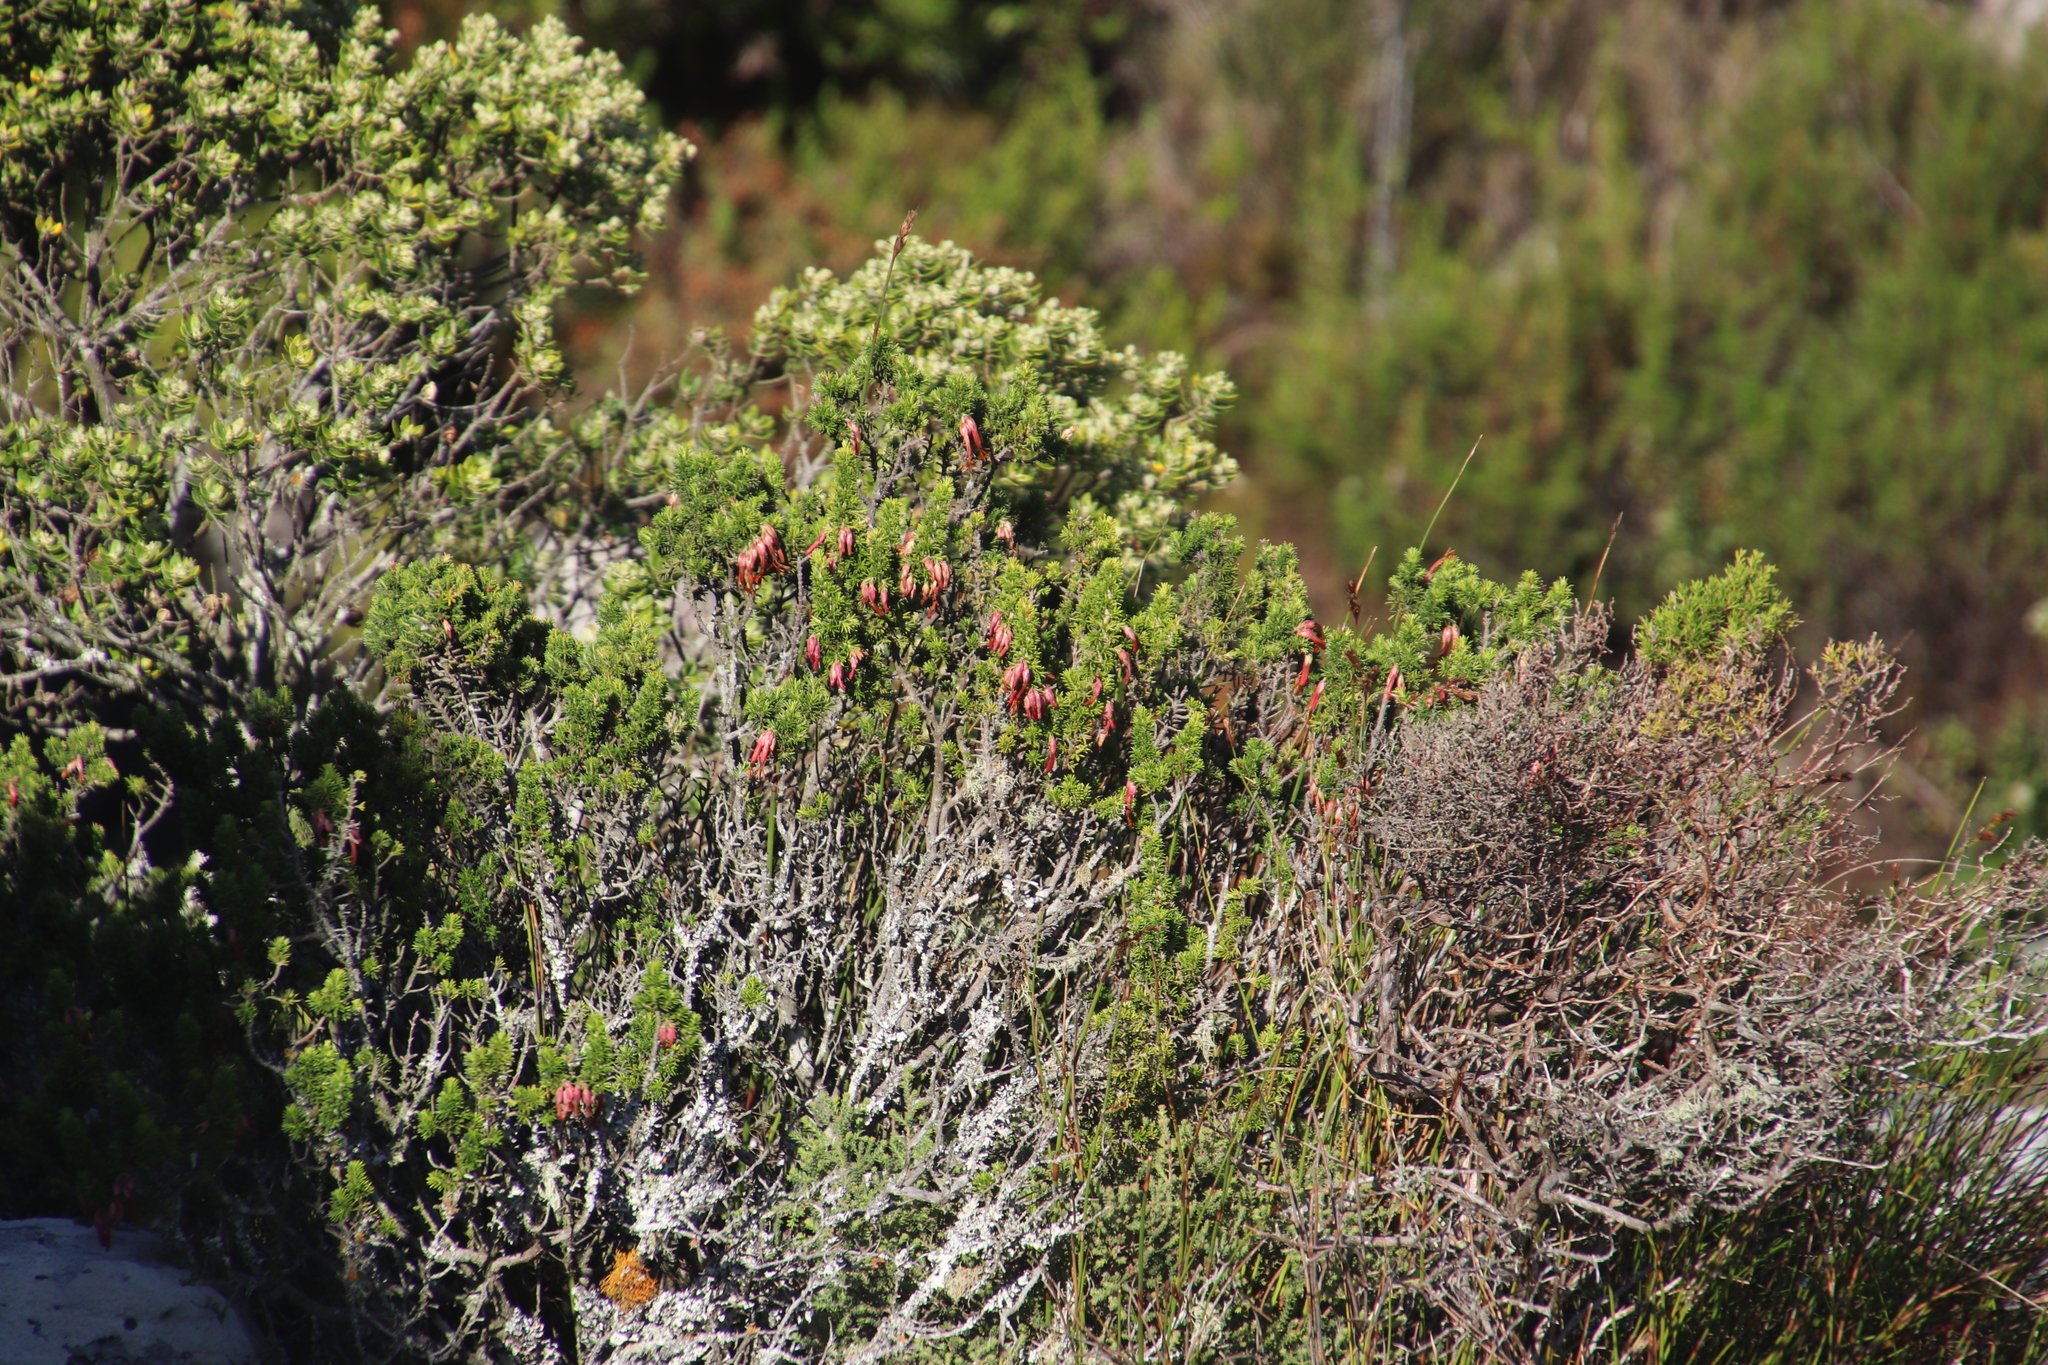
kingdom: Plantae
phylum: Tracheophyta
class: Magnoliopsida
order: Ericales
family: Ericaceae
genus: Erica
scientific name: Erica coccinea
